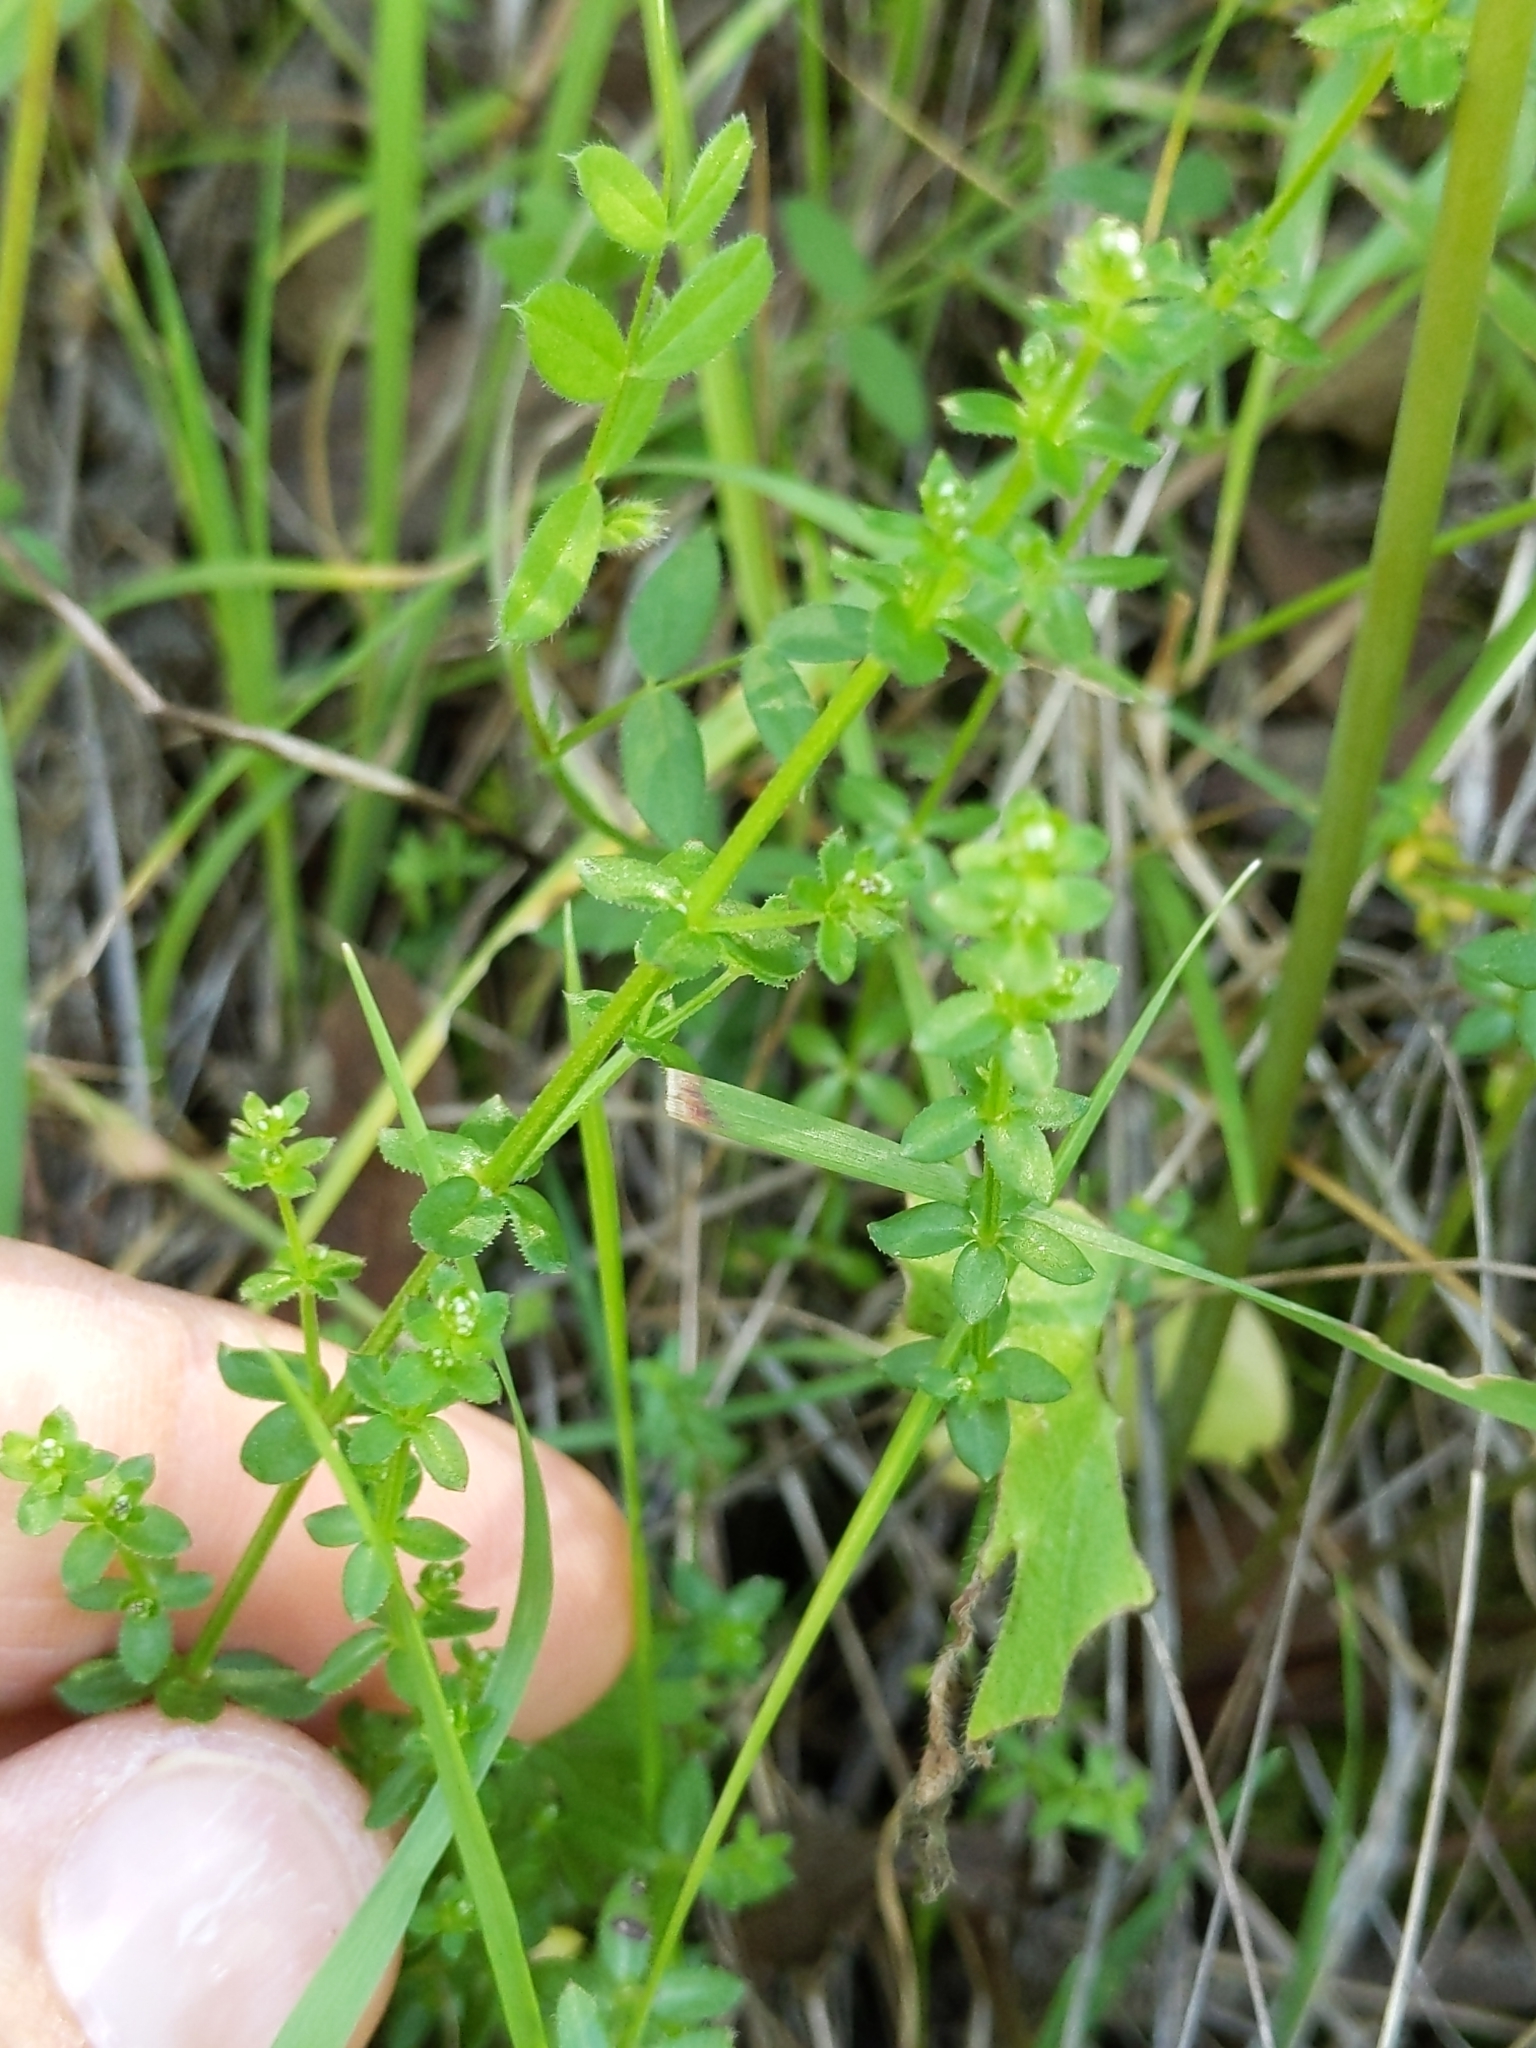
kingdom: Plantae
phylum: Tracheophyta
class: Magnoliopsida
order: Gentianales
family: Rubiaceae
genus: Galium
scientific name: Galium porrigens
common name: Climbing bedstraw
